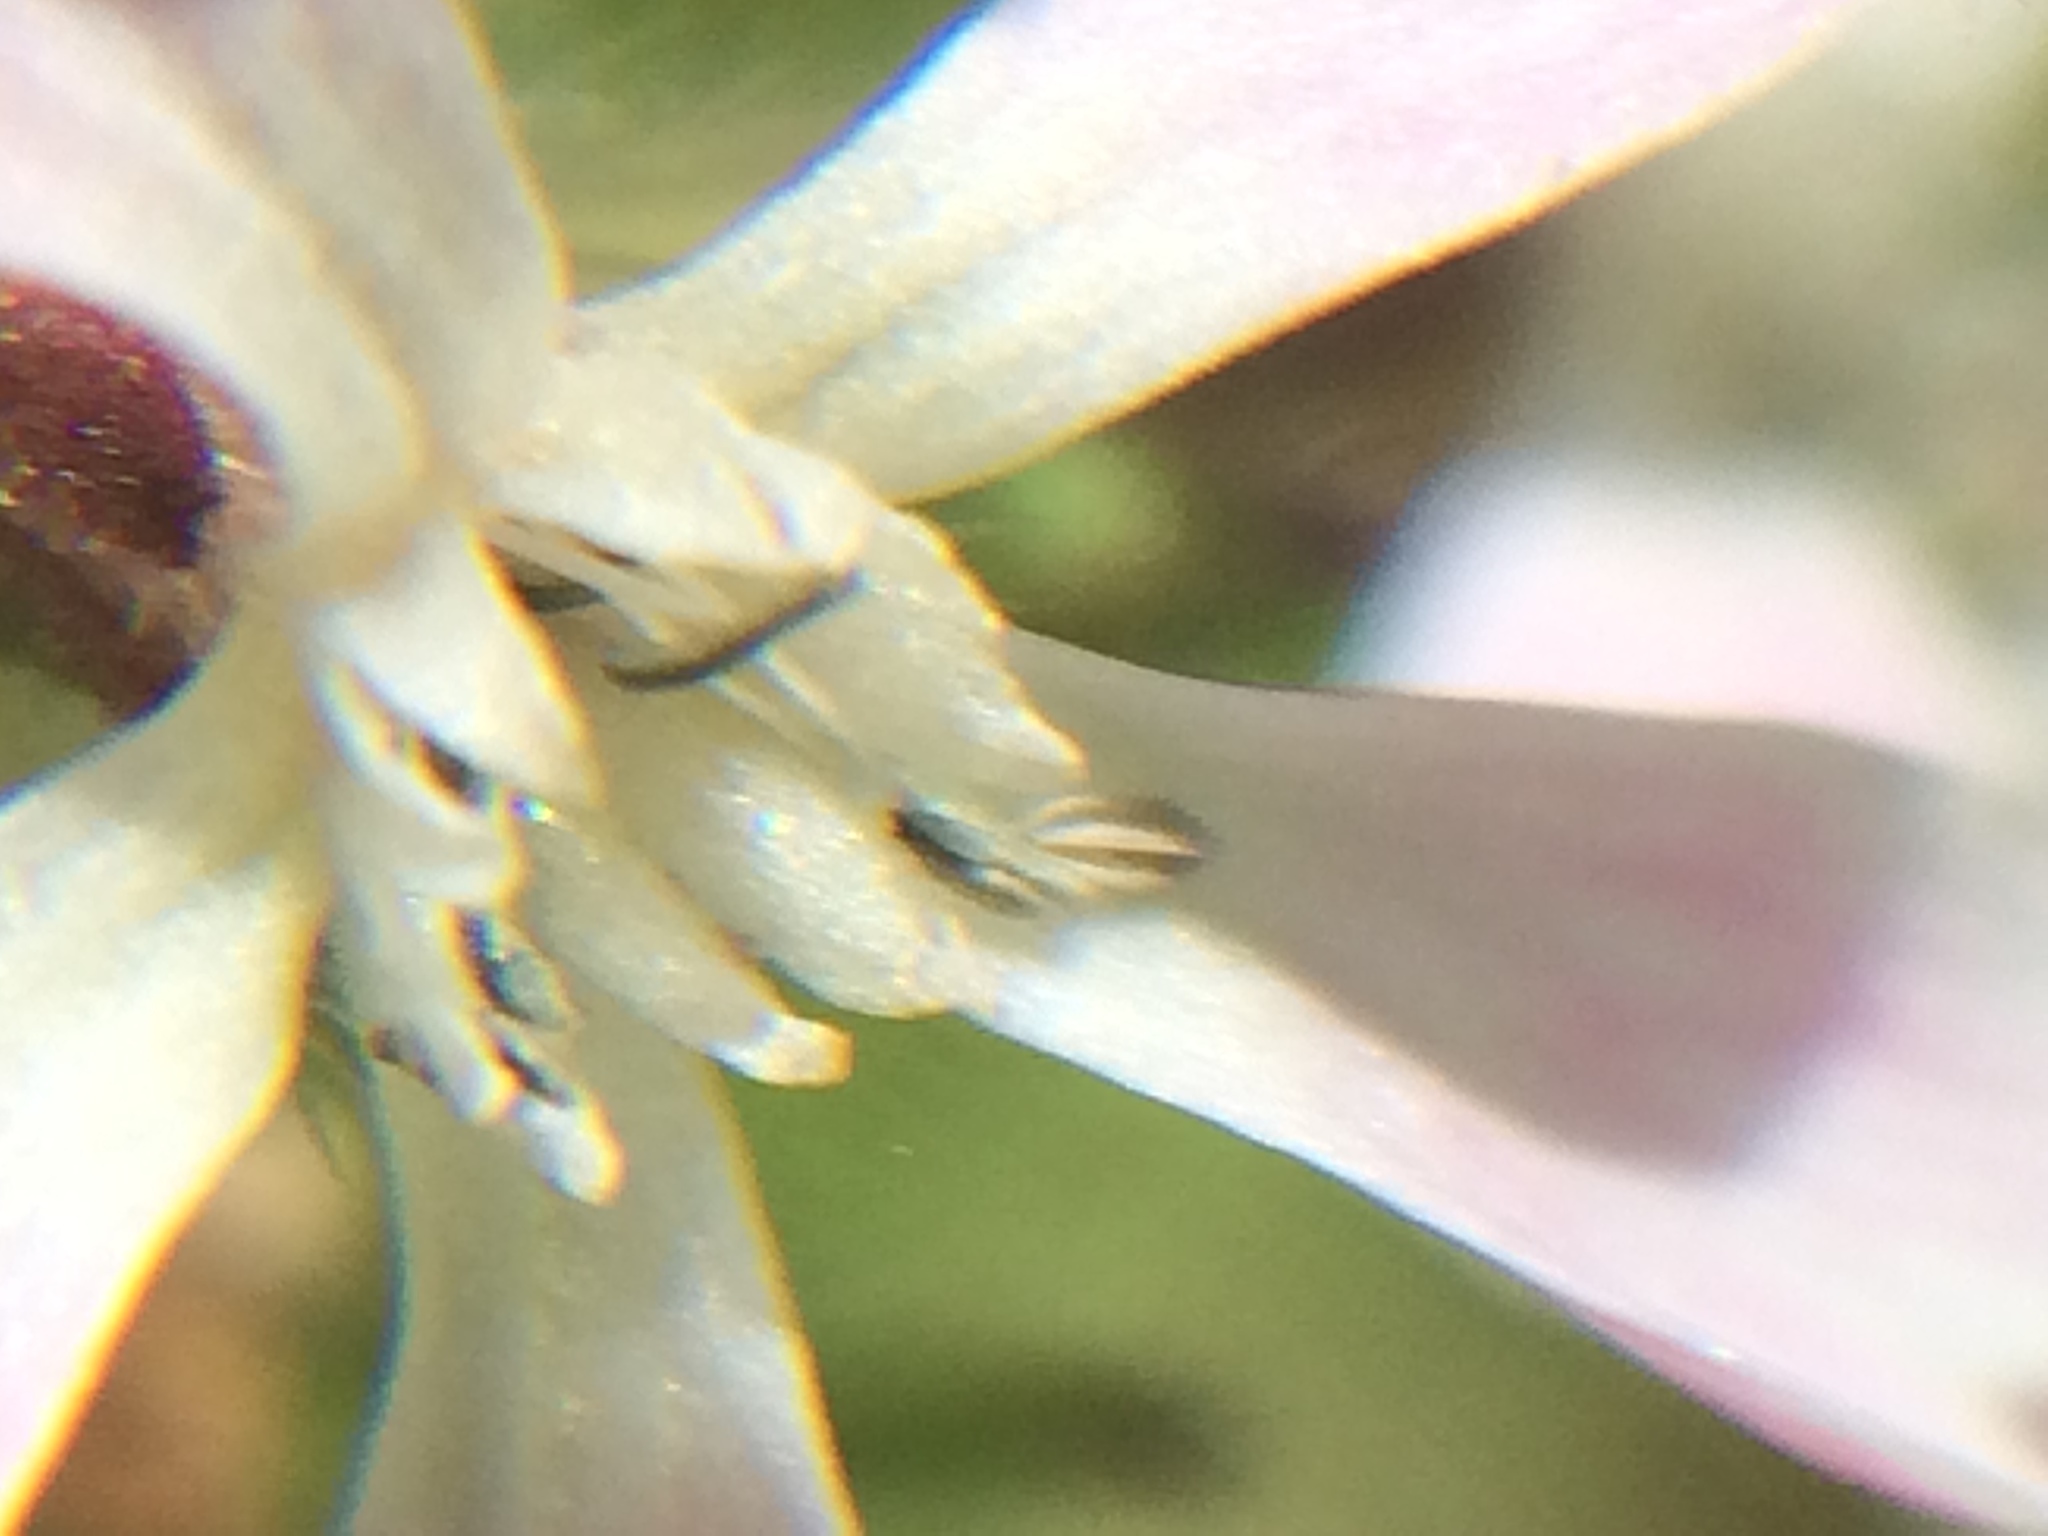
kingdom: Plantae
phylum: Tracheophyta
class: Magnoliopsida
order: Caryophyllales
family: Caryophyllaceae
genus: Silene
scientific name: Silene gallica
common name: Small-flowered catchfly
